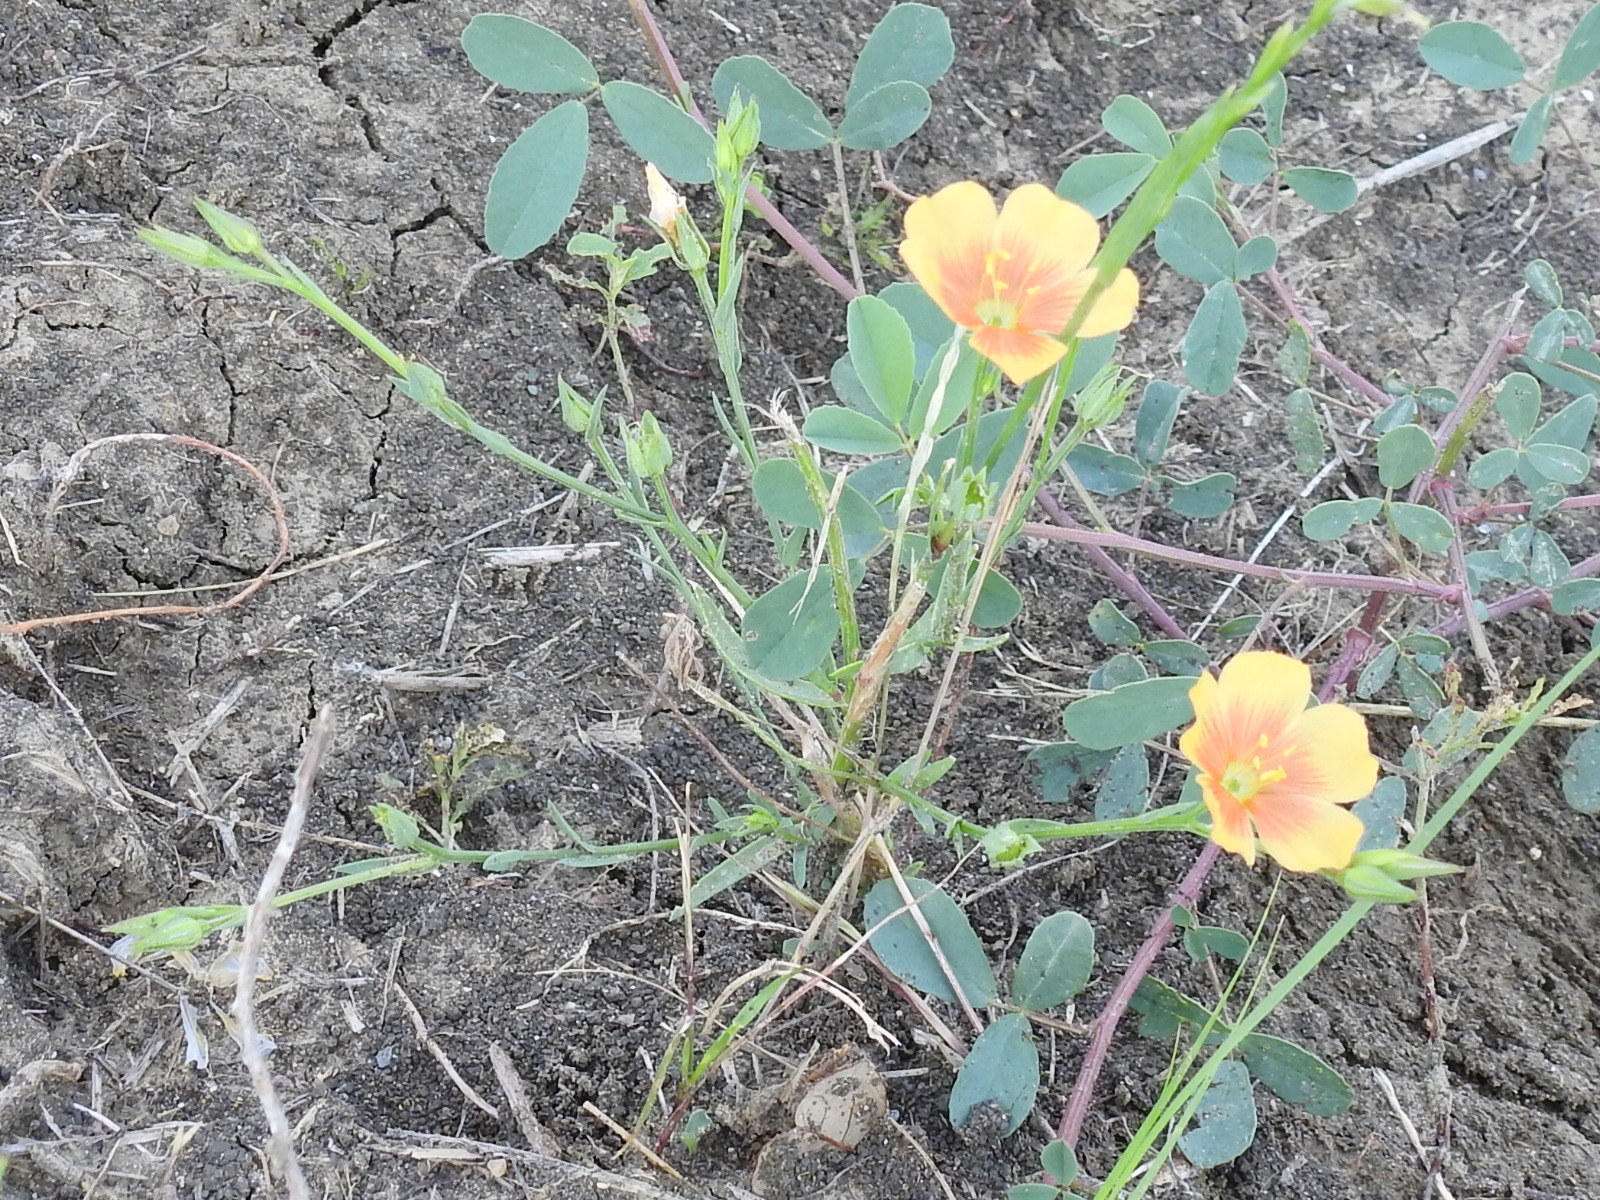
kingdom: Plantae
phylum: Tracheophyta
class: Magnoliopsida
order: Malpighiales
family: Linaceae
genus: Linum
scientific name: Linum rigidum
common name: Stiff-stem flax
